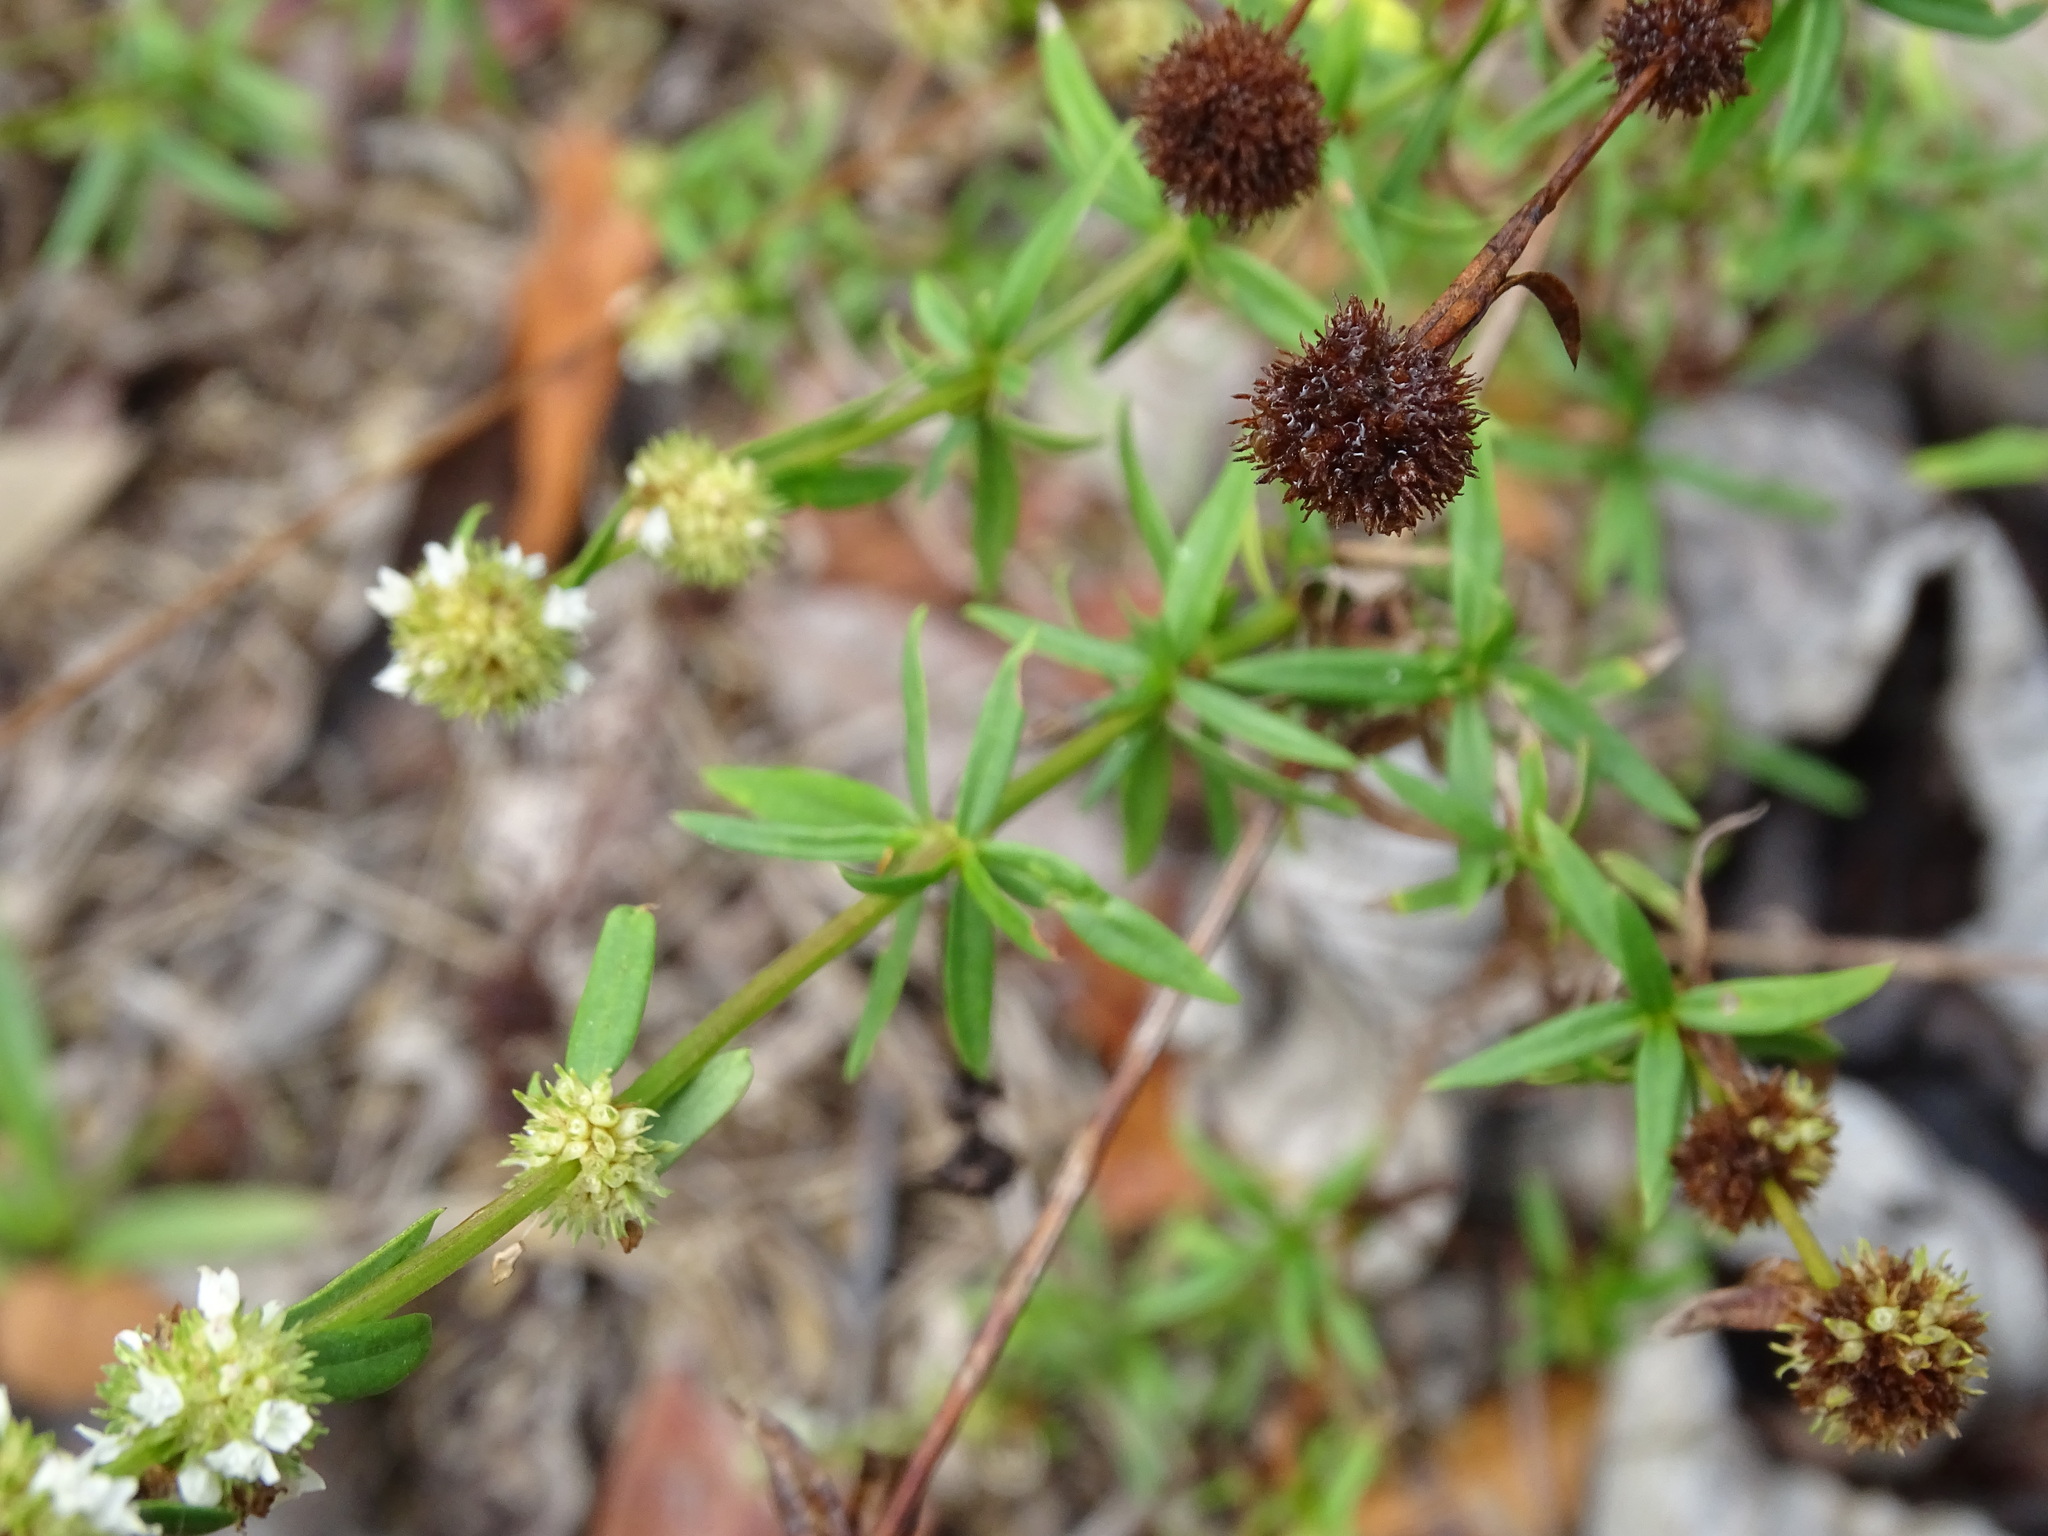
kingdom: Plantae
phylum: Tracheophyta
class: Magnoliopsida
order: Gentianales
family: Rubiaceae
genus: Spermacoce
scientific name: Spermacoce verticillata
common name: Shrubby false buttonweed
